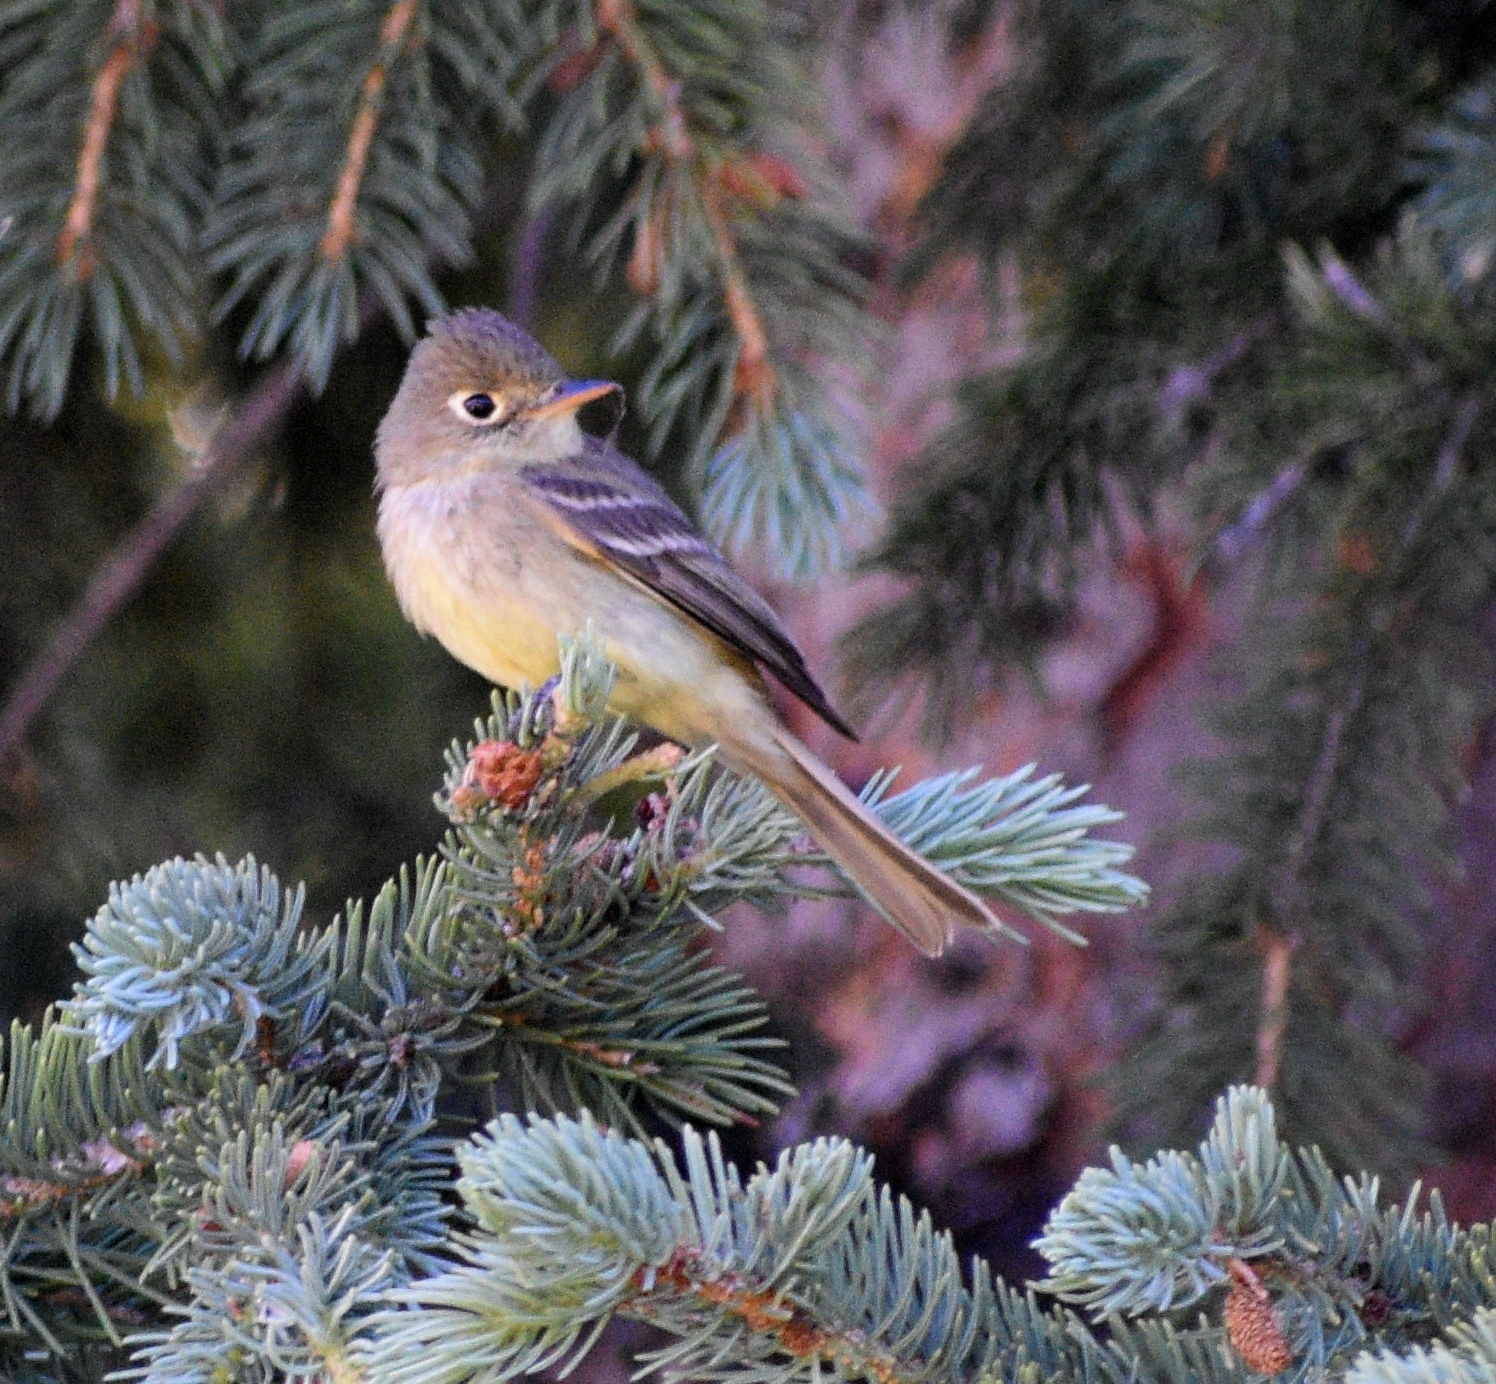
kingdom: Animalia
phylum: Chordata
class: Aves
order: Passeriformes
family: Tyrannidae
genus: Empidonax
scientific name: Empidonax difficilis
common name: Pacific-slope flycatcher
